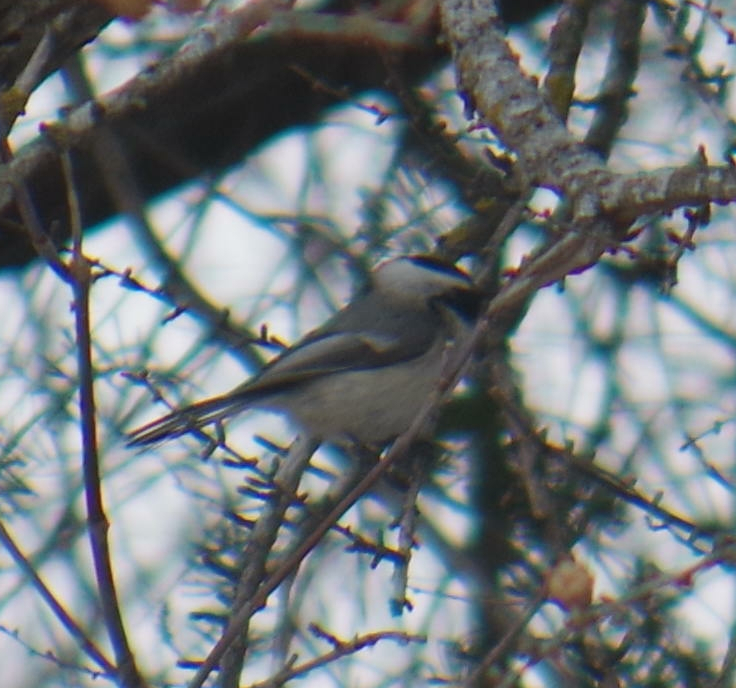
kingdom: Animalia
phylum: Chordata
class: Aves
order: Passeriformes
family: Paridae
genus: Poecile
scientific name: Poecile atricapillus
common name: Black-capped chickadee
